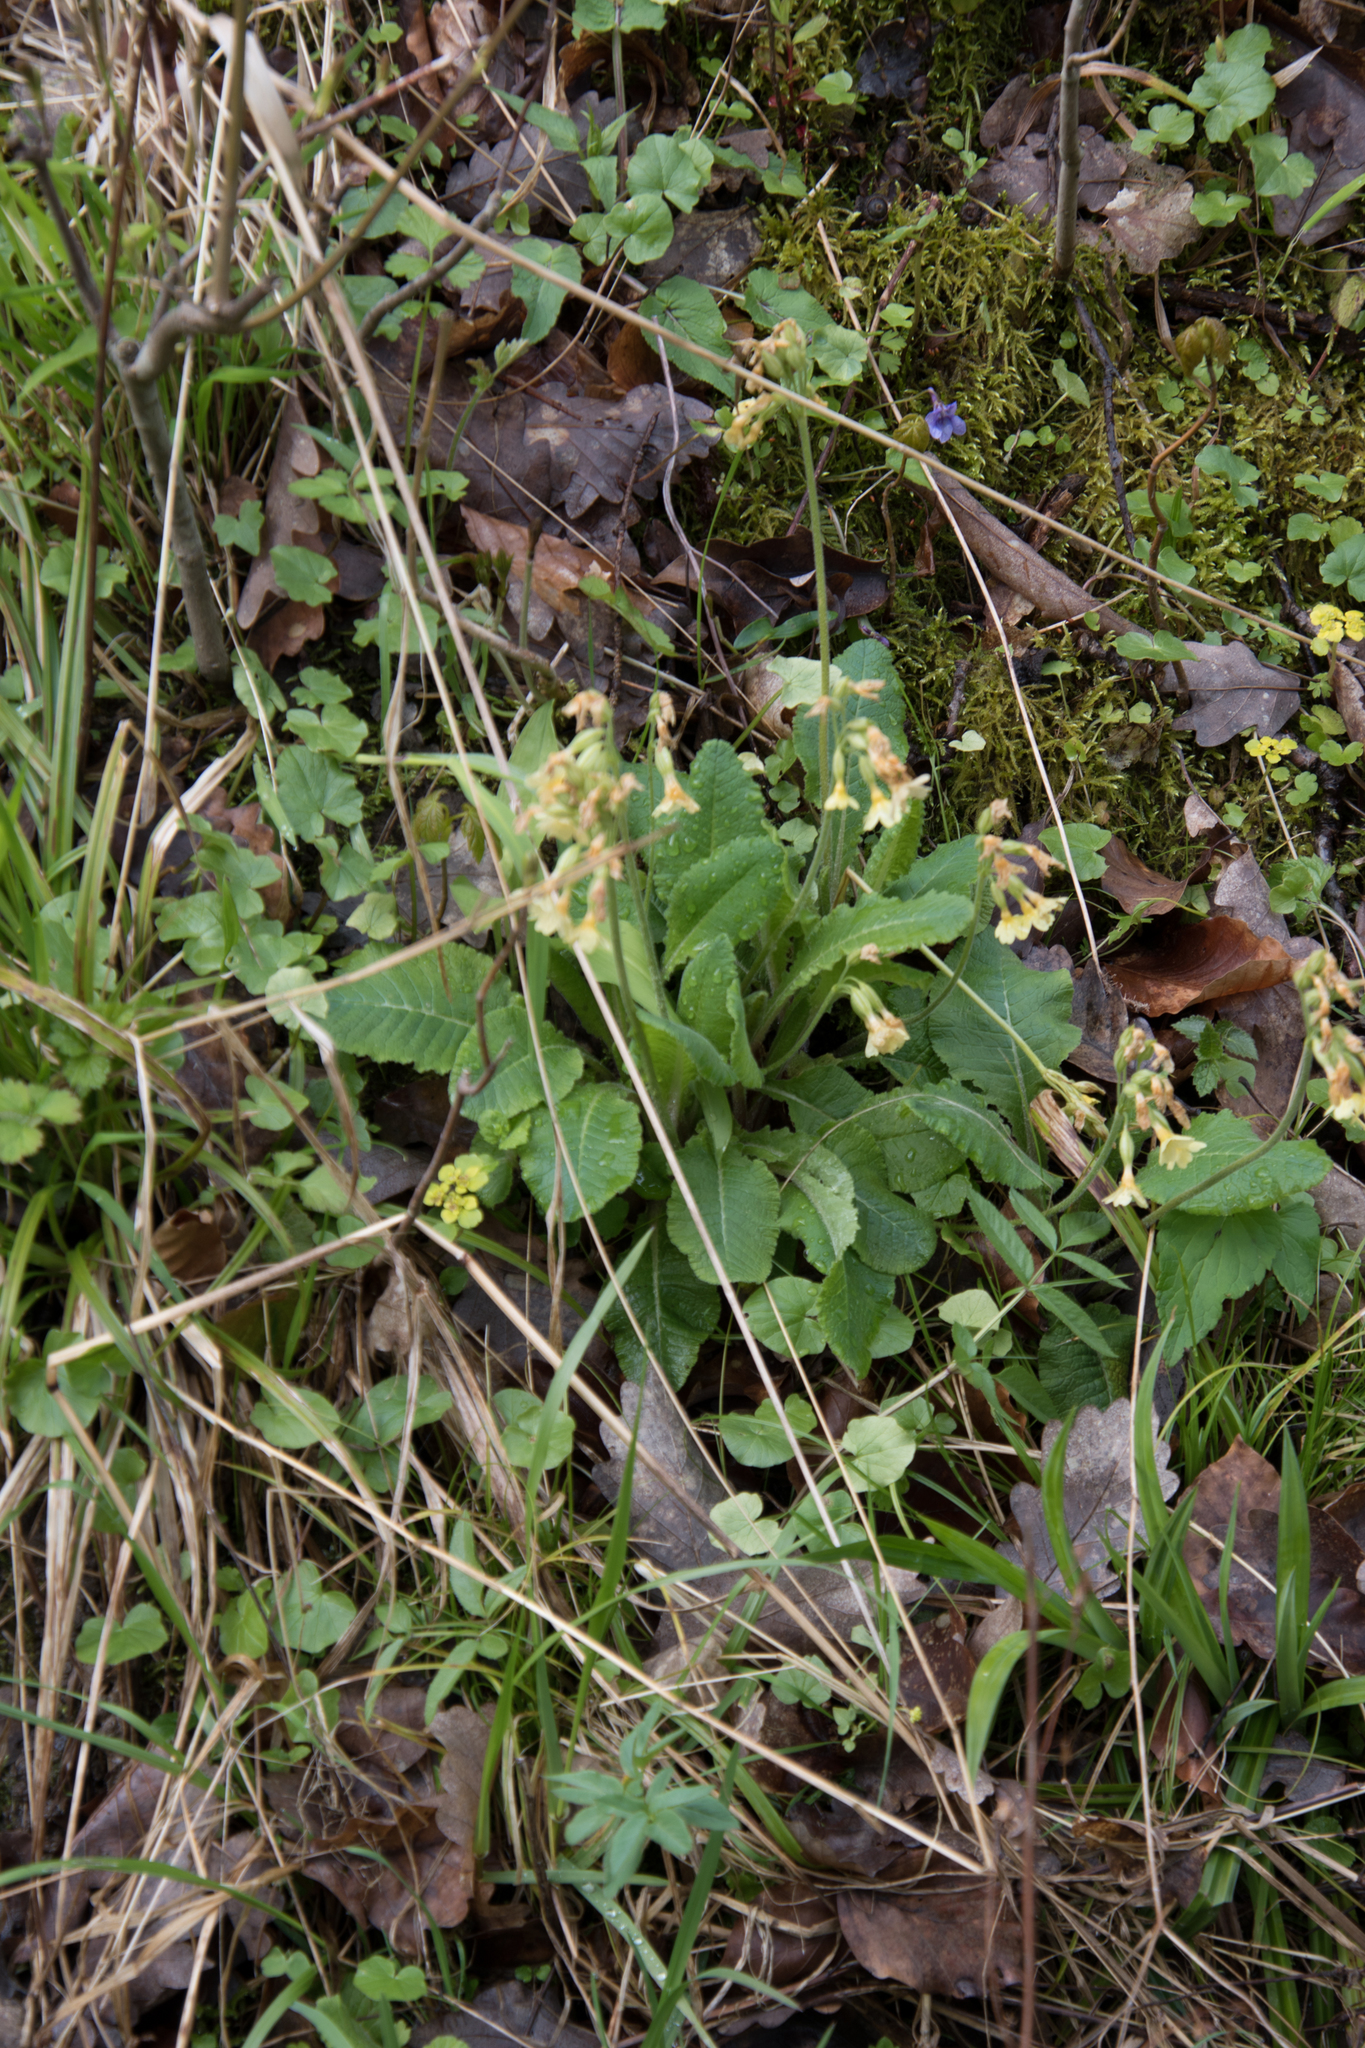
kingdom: Plantae
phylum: Tracheophyta
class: Magnoliopsida
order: Ericales
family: Primulaceae
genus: Primula
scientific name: Primula elatior
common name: Oxlip
